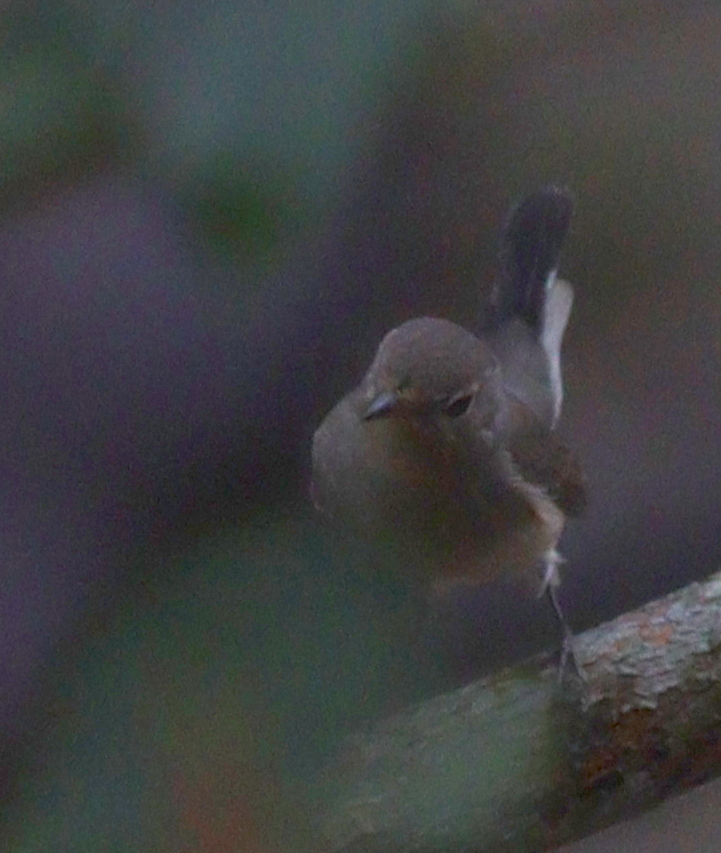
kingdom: Animalia
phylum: Chordata
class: Aves
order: Passeriformes
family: Muscicapidae
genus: Ficedula
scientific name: Ficedula albicilla
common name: Taiga flycatcher
